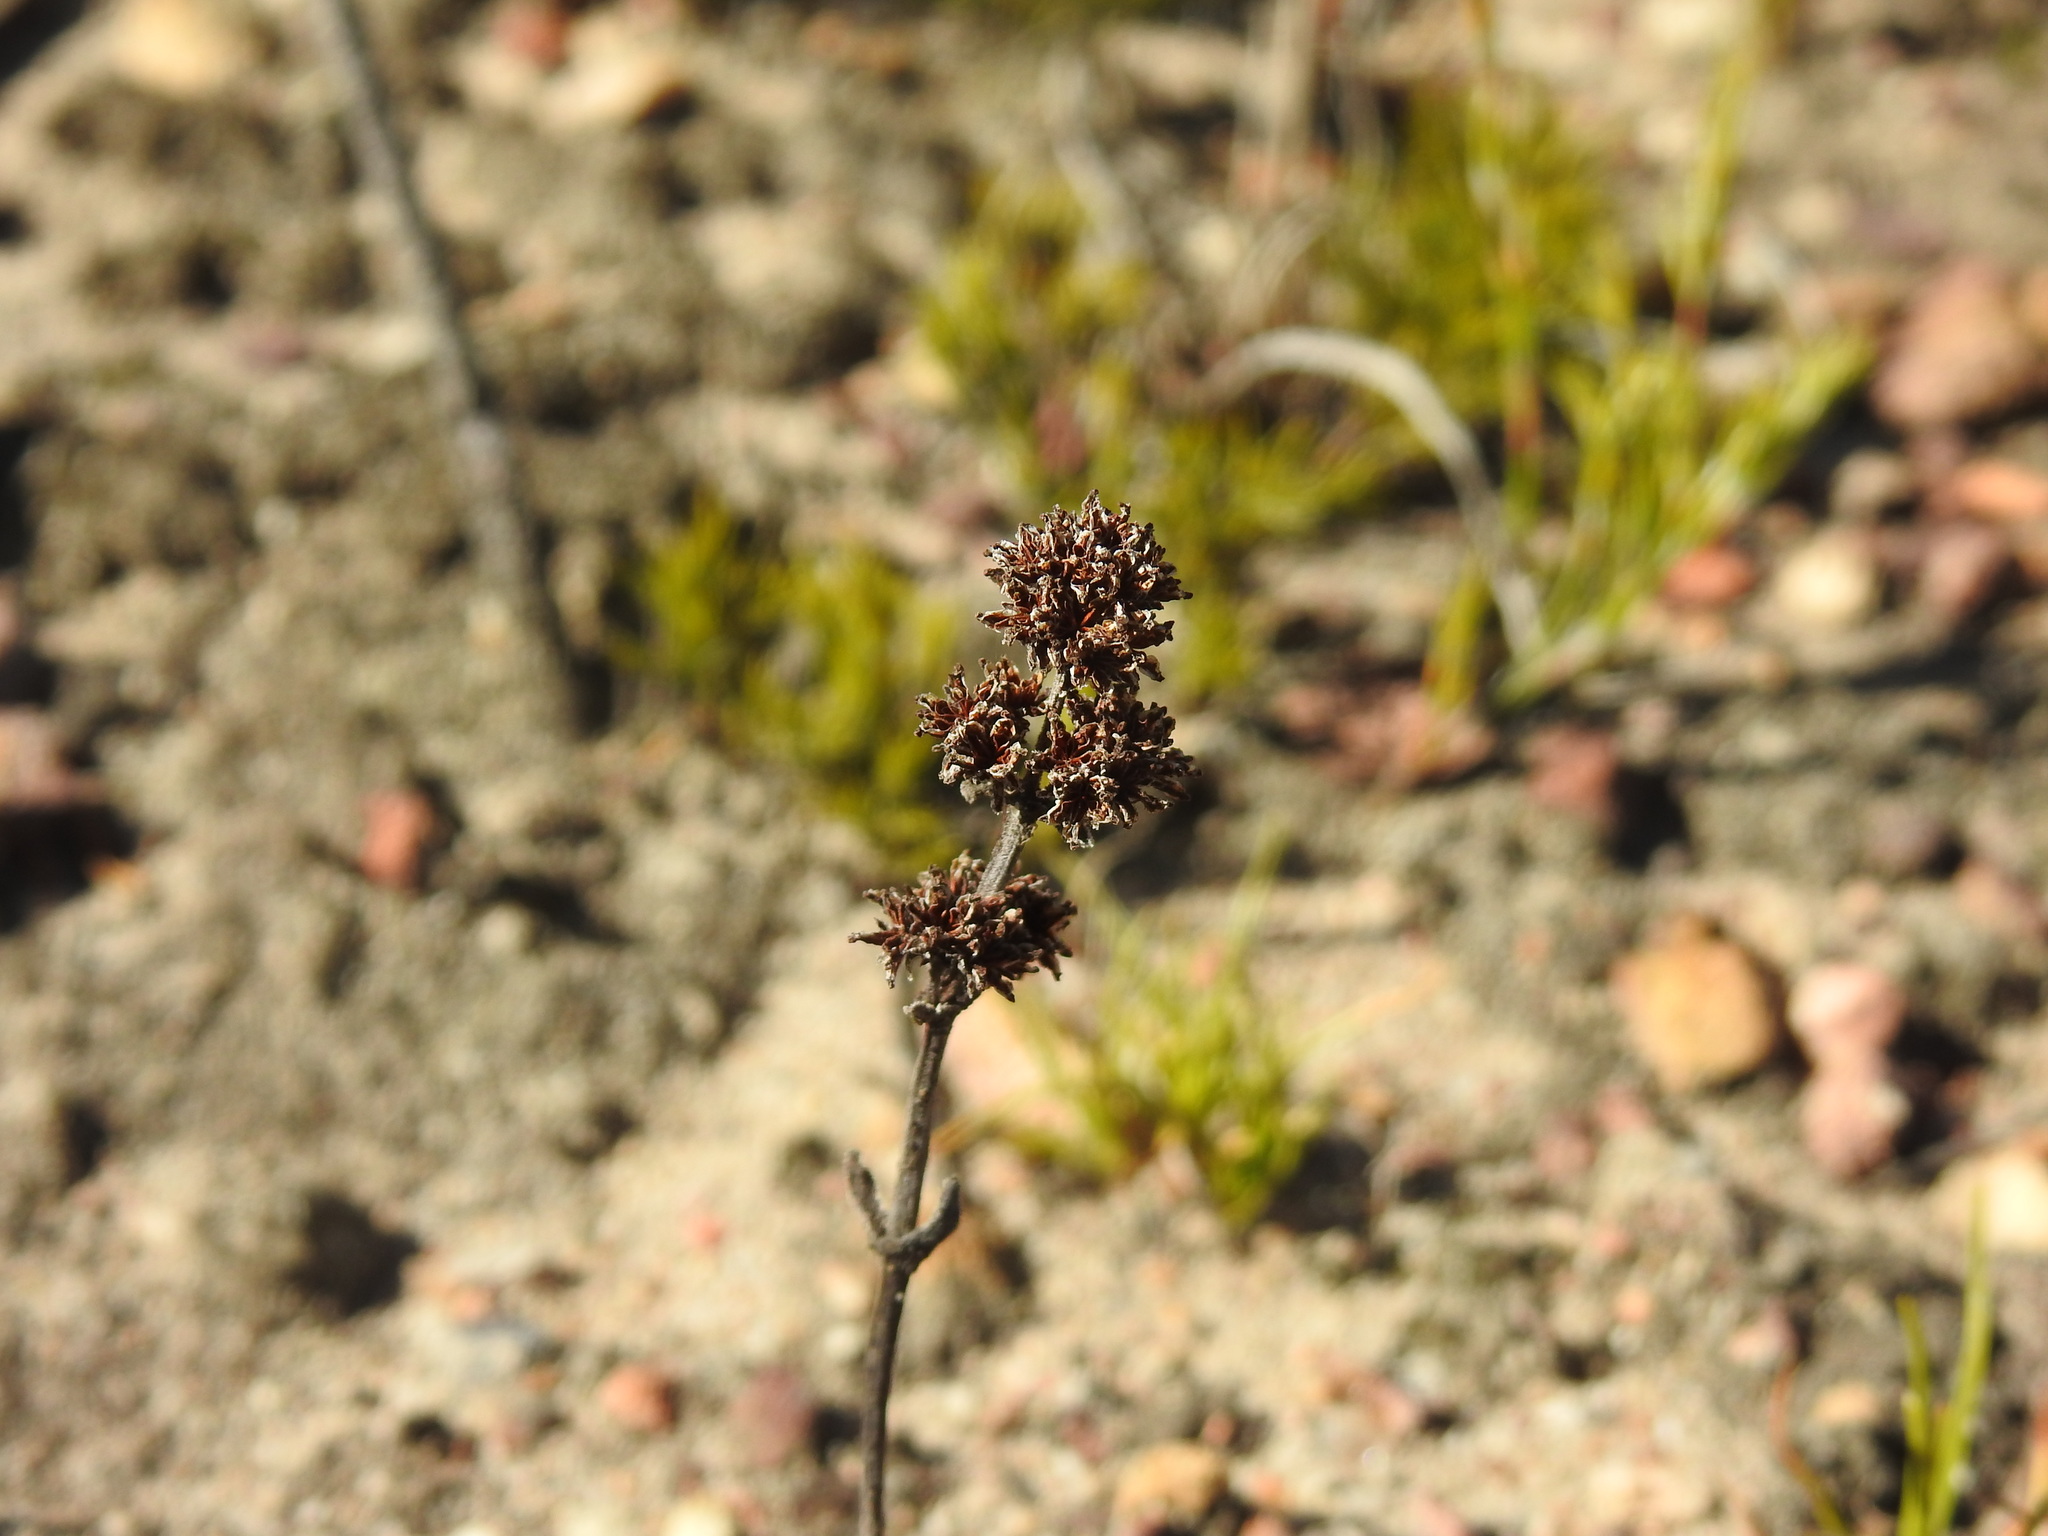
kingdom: Plantae
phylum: Tracheophyta
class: Magnoliopsida
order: Saxifragales
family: Crassulaceae
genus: Crassula
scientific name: Crassula nudicaulis
